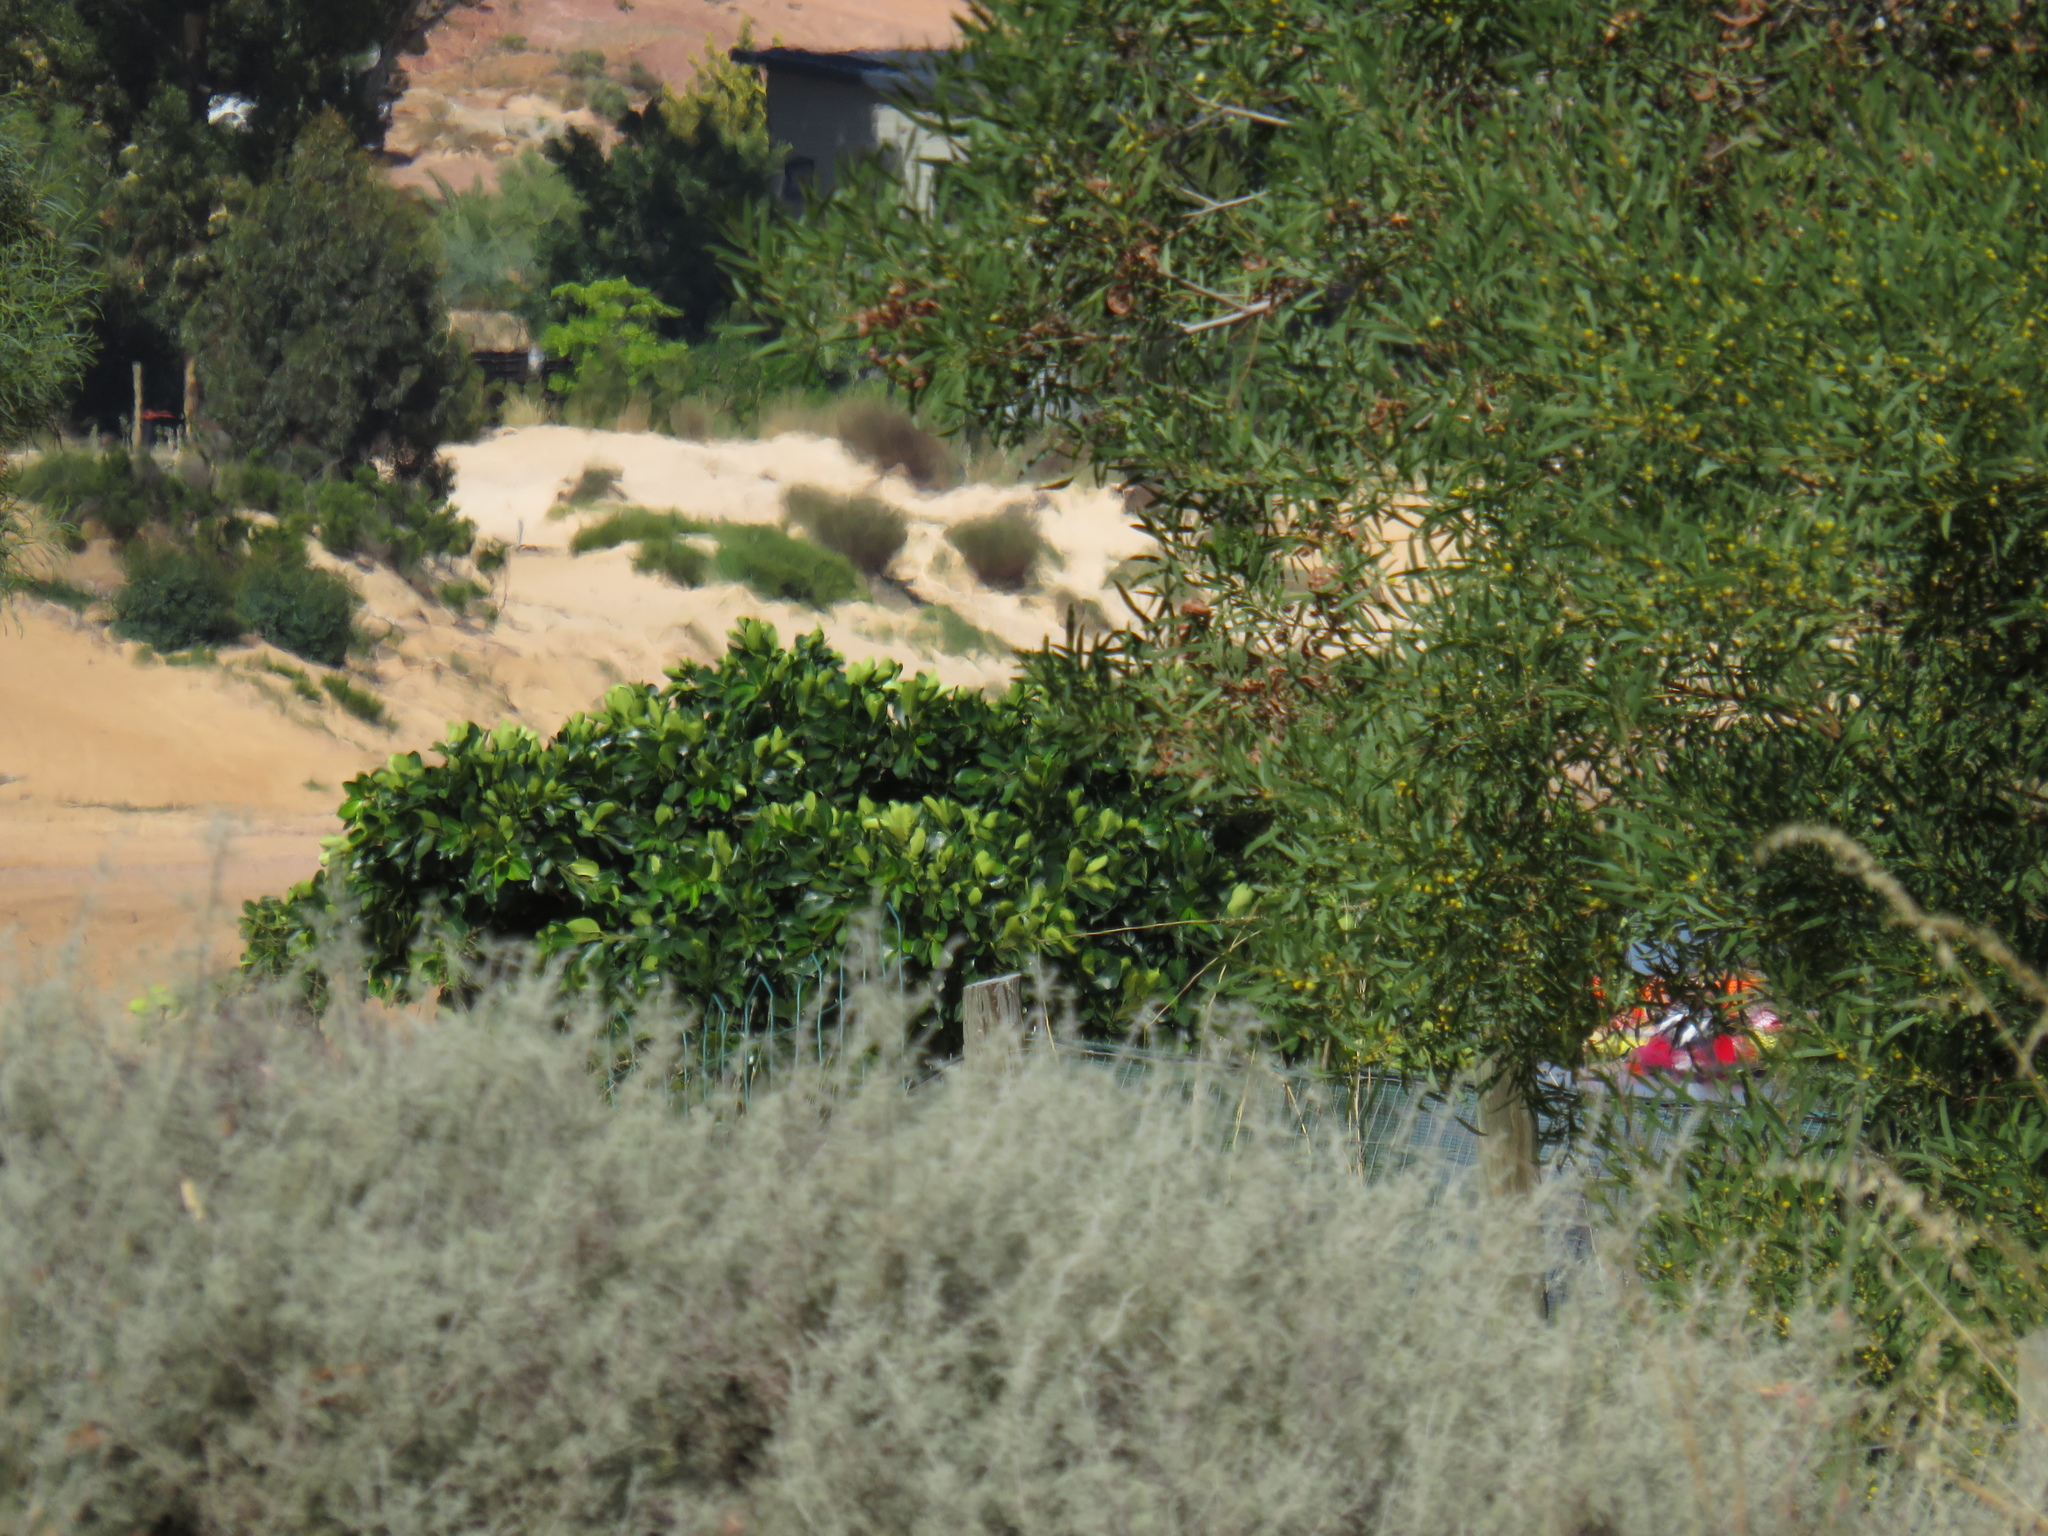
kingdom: Plantae
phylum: Tracheophyta
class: Magnoliopsida
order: Rosales
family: Moraceae
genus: Ficus
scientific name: Ficus thonningii
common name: Fig
